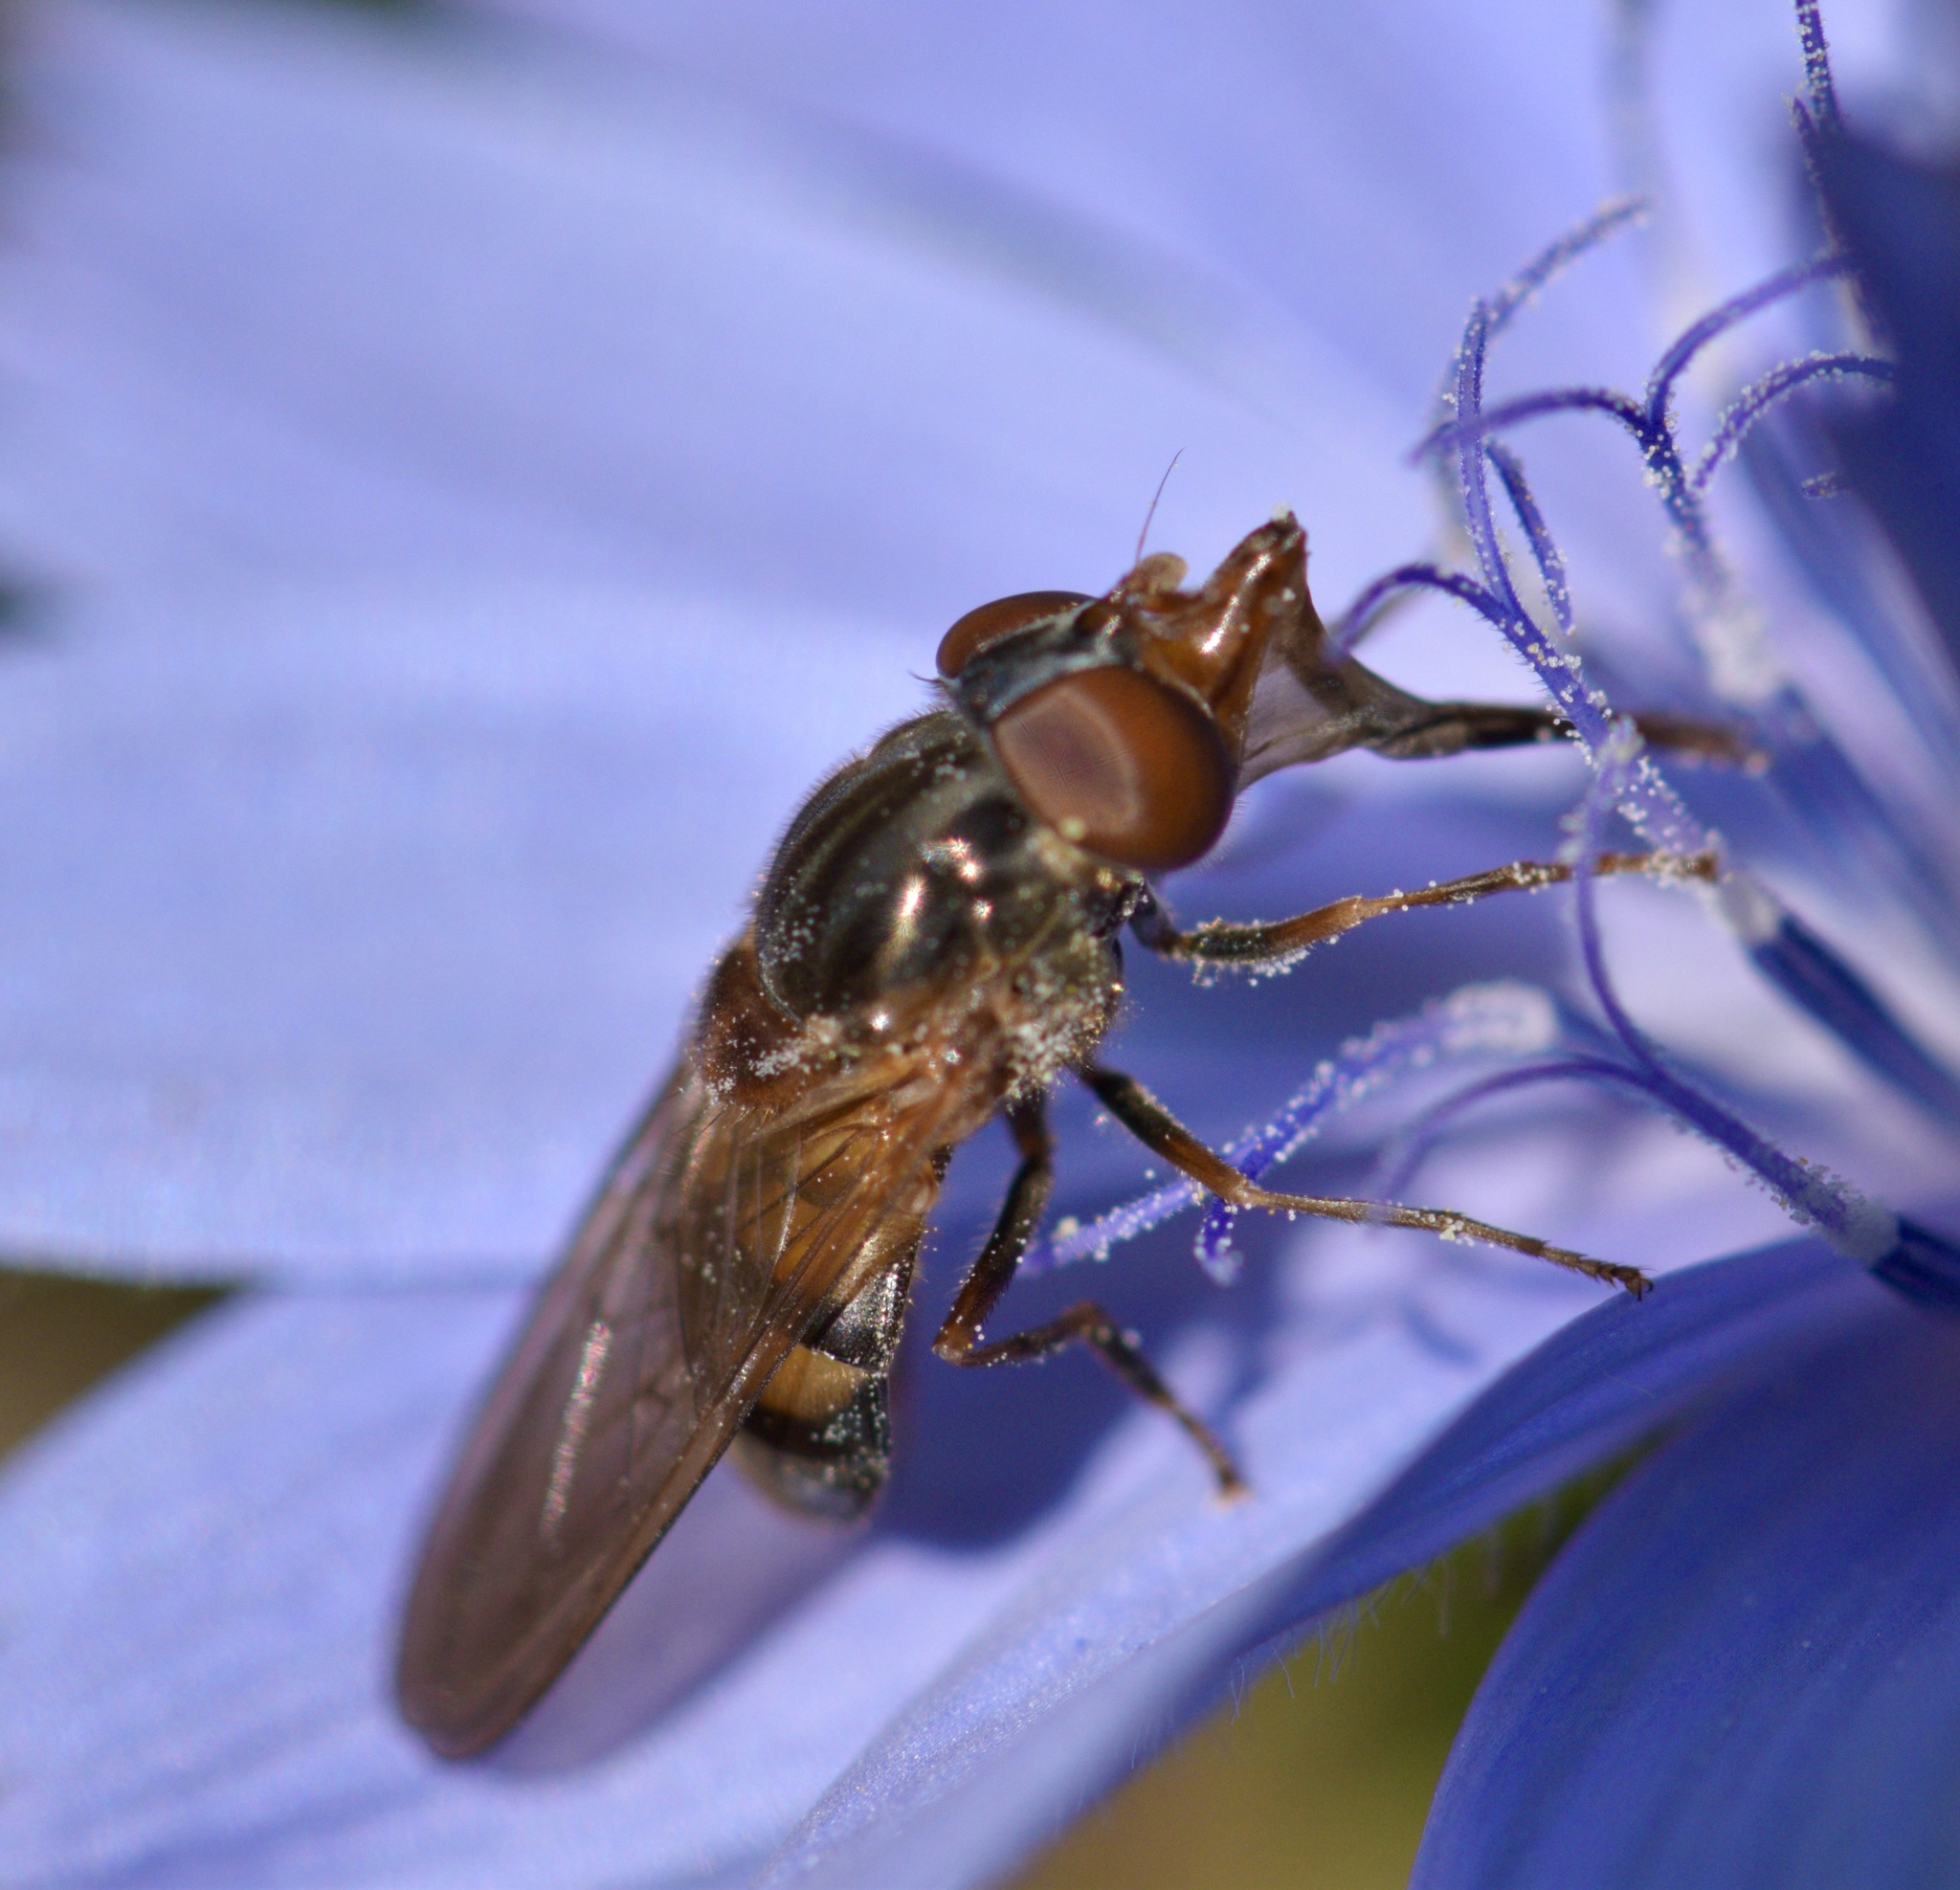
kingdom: Animalia
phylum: Arthropoda
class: Insecta
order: Diptera
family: Syrphidae
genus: Rhingia
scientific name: Rhingia nasica
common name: American snout fly
